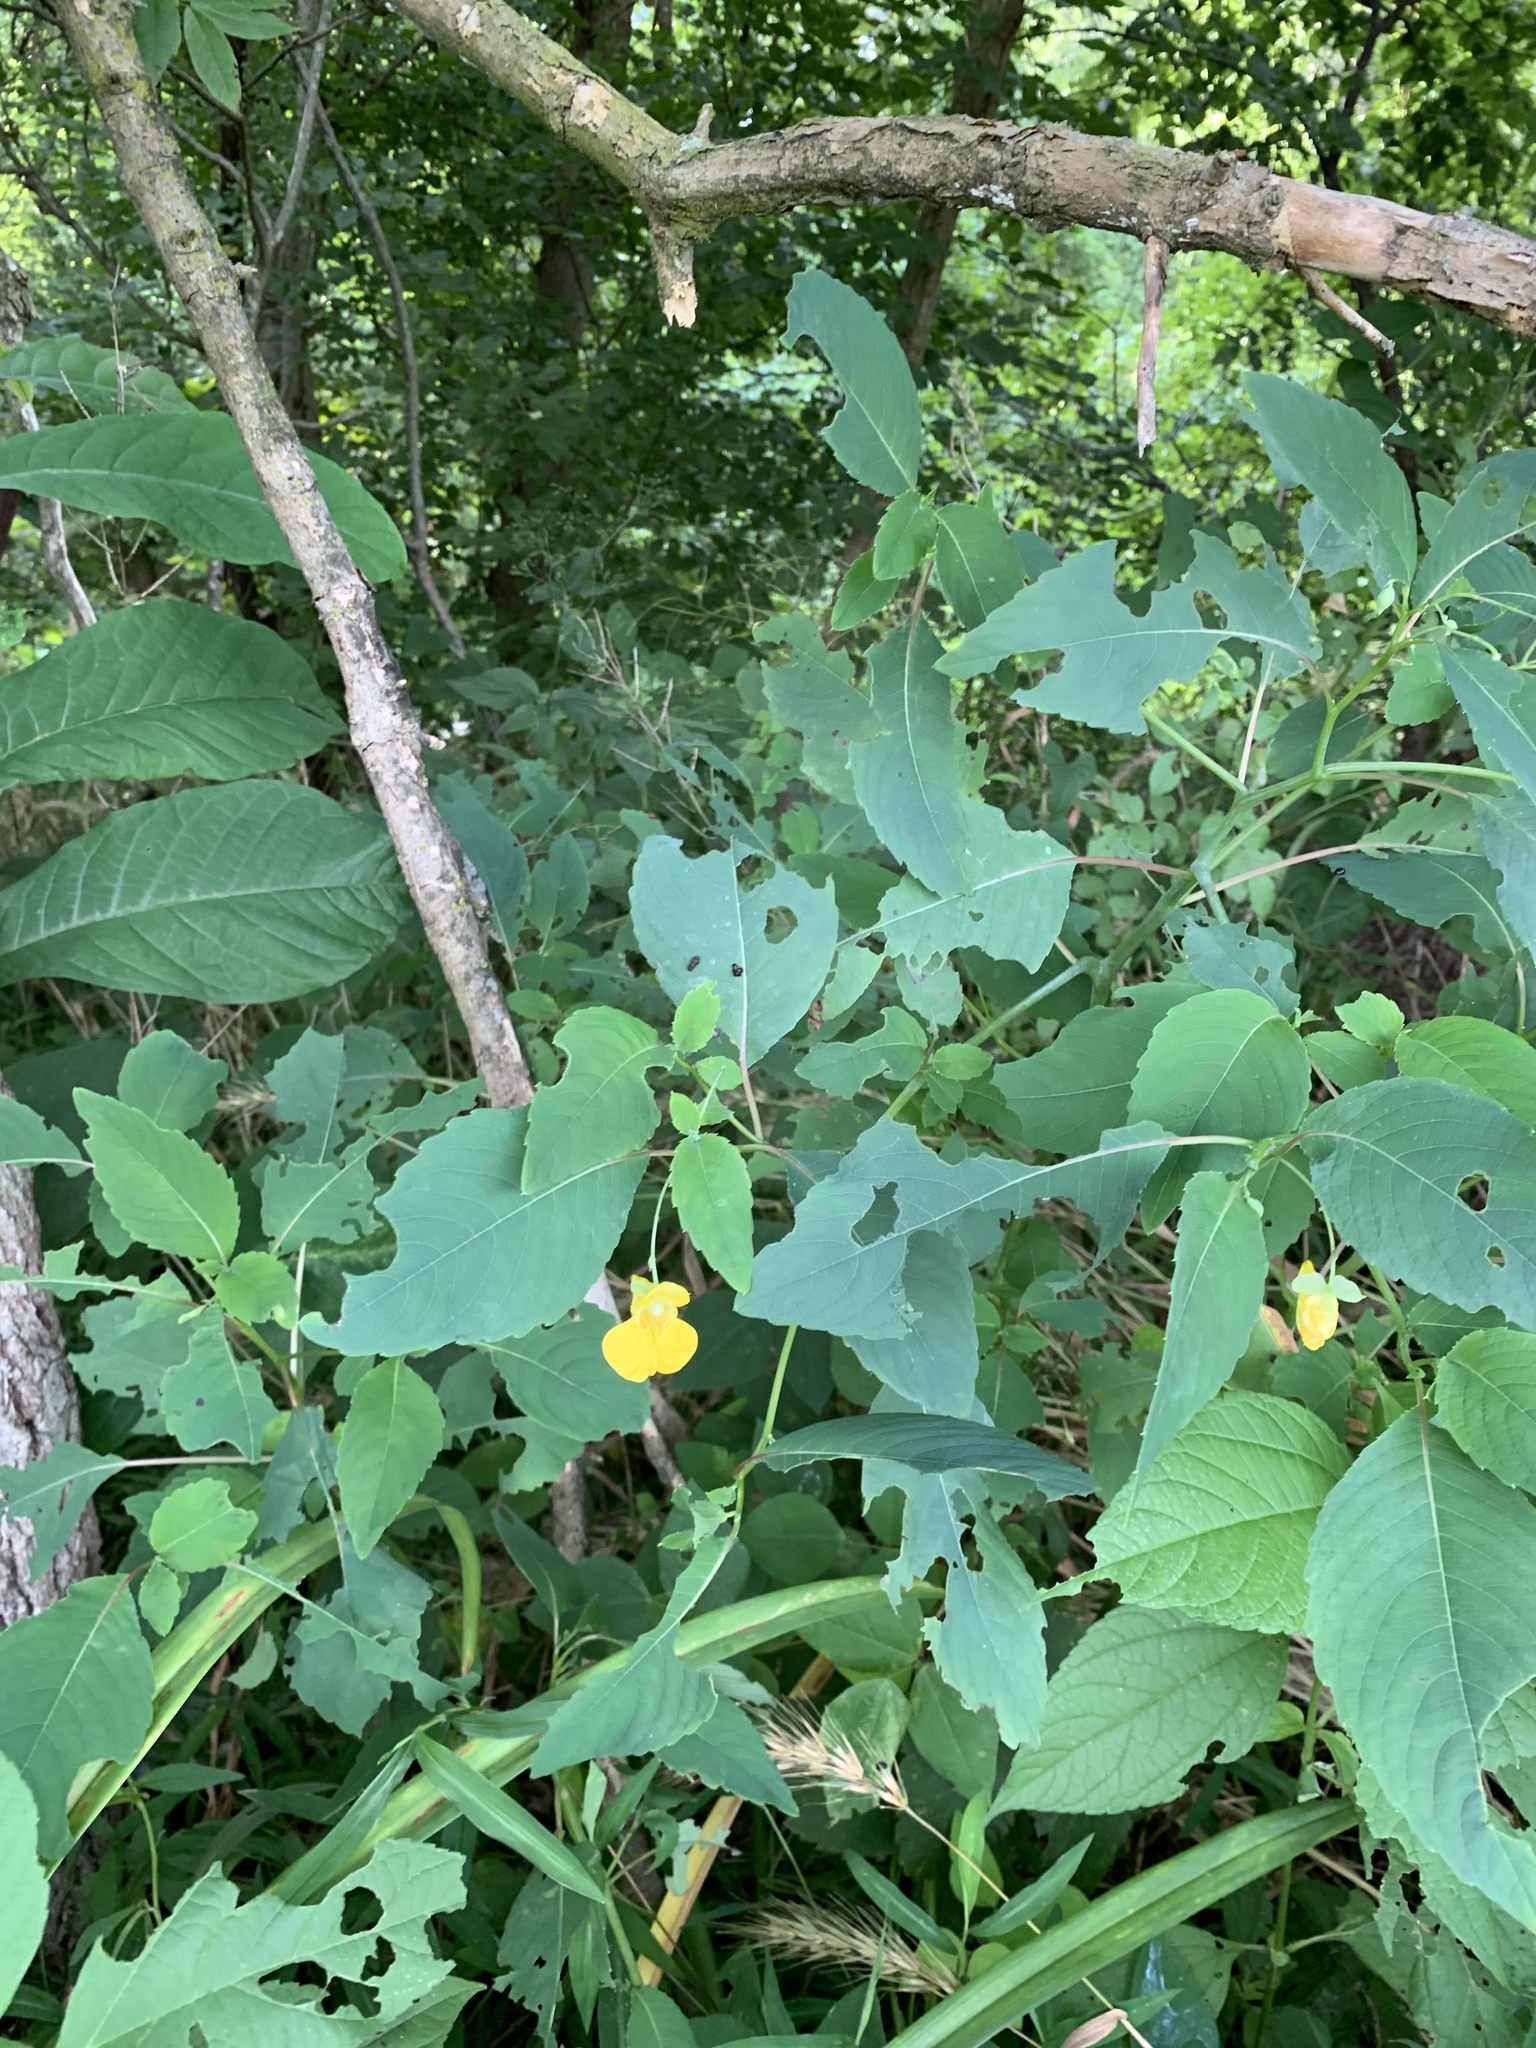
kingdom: Plantae
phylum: Tracheophyta
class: Magnoliopsida
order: Ericales
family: Balsaminaceae
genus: Impatiens
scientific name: Impatiens pallida
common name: Pale snapweed
